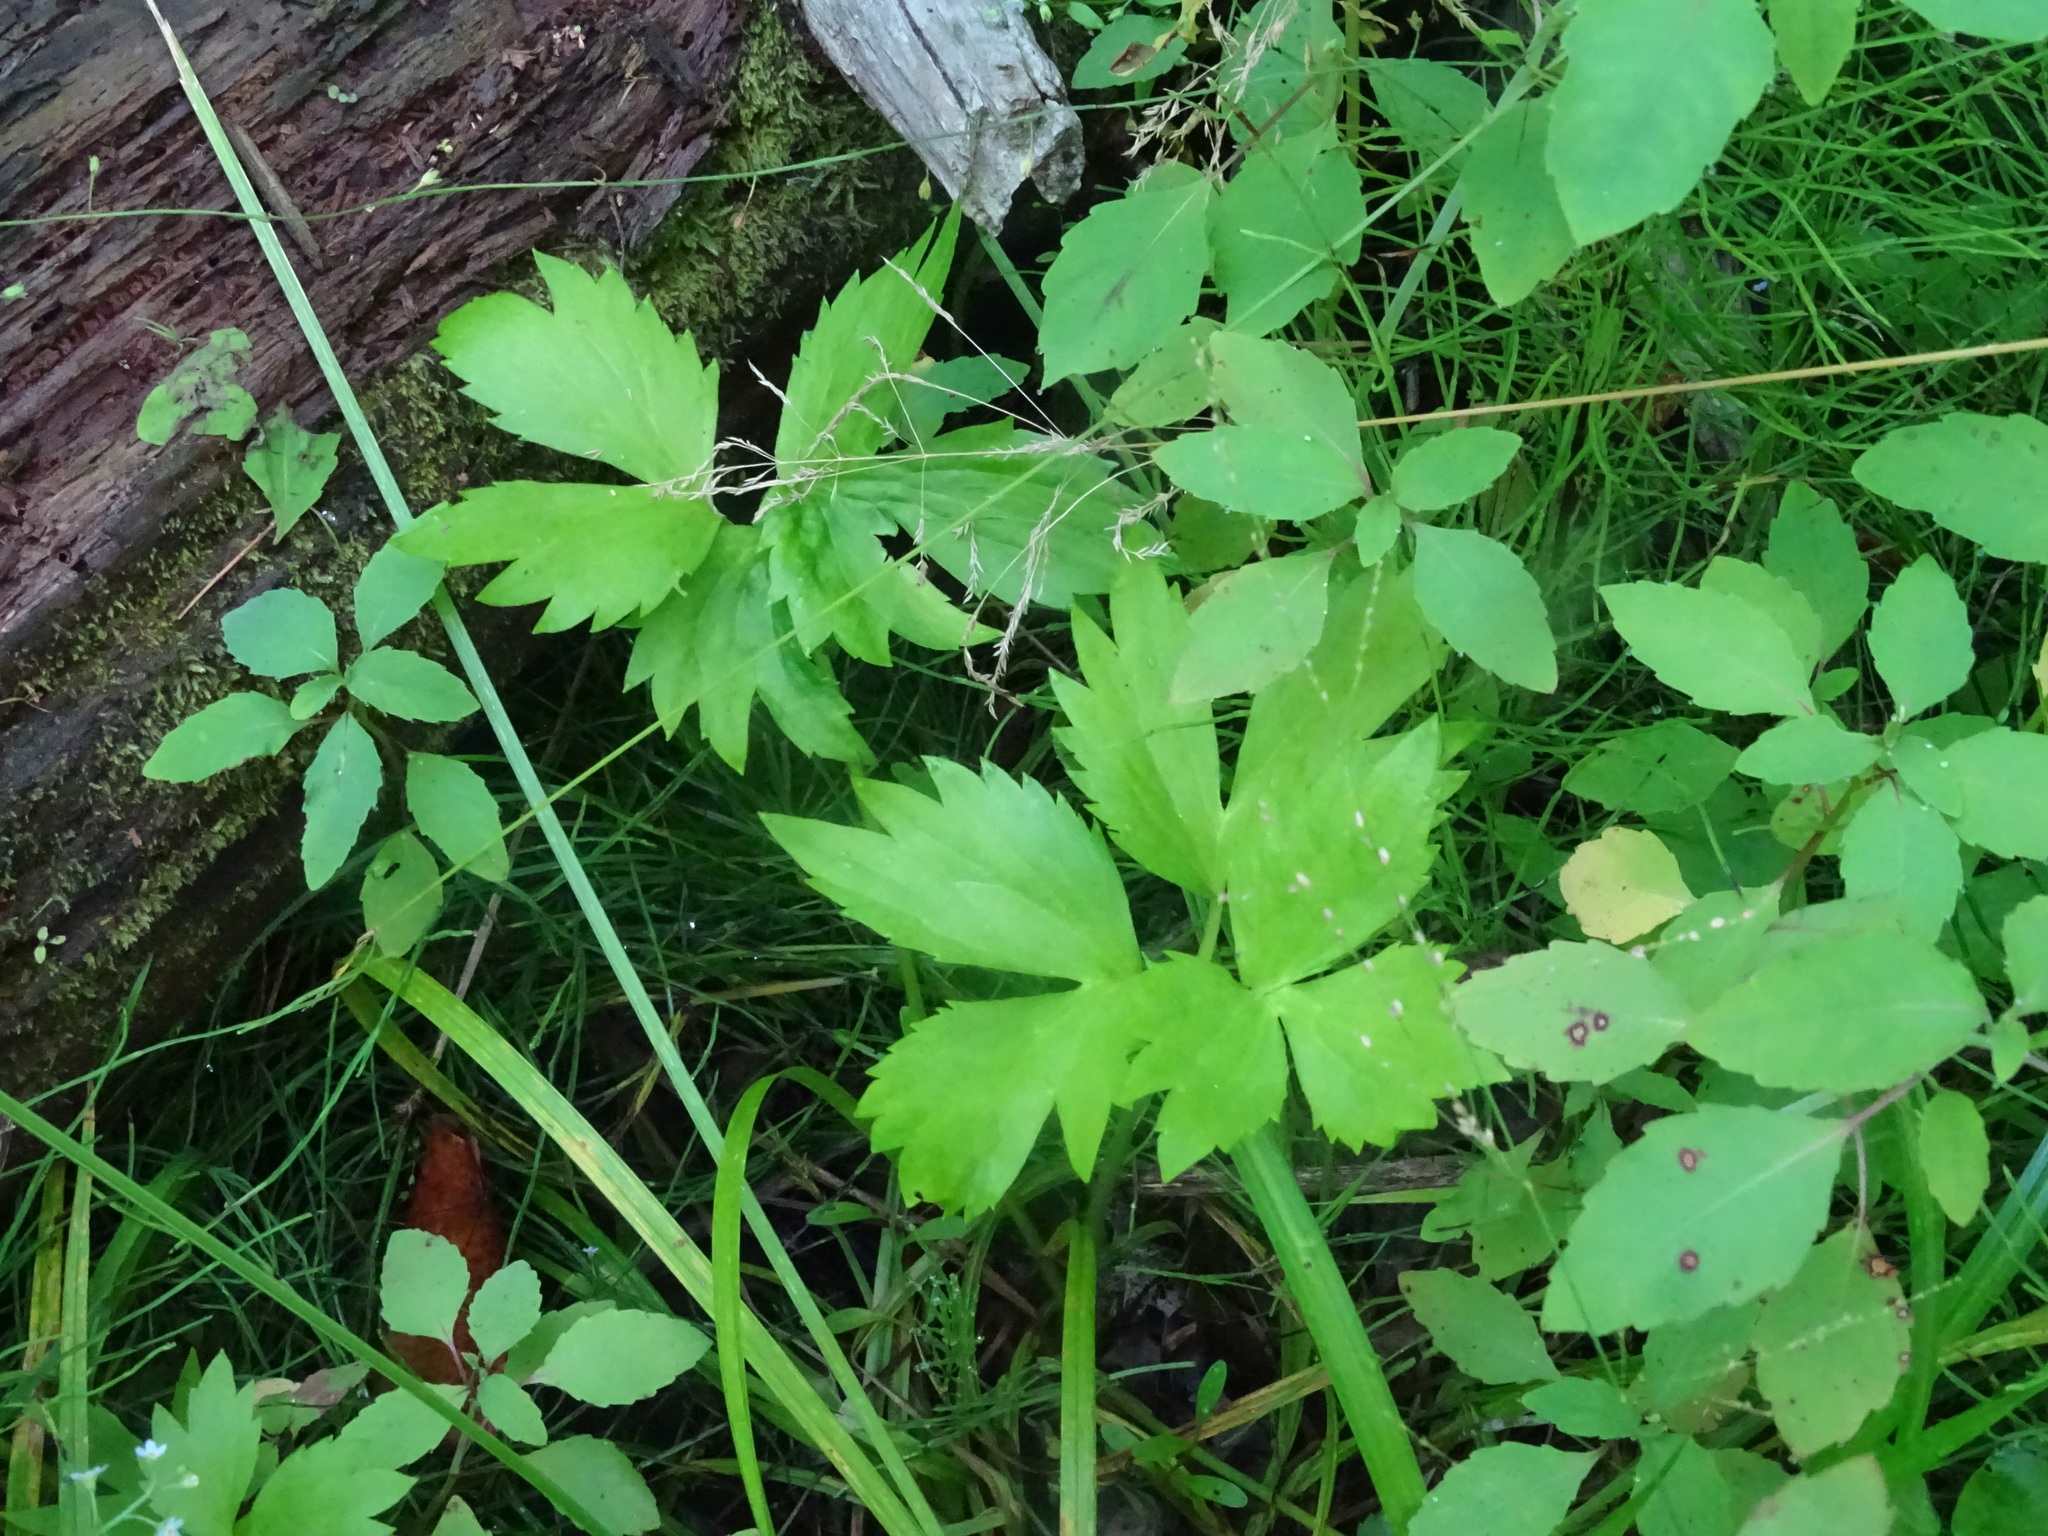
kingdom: Plantae
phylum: Tracheophyta
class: Magnoliopsida
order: Ranunculales
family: Ranunculaceae
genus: Ranunculus
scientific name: Ranunculus hispidus
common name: Bristly buttercup
